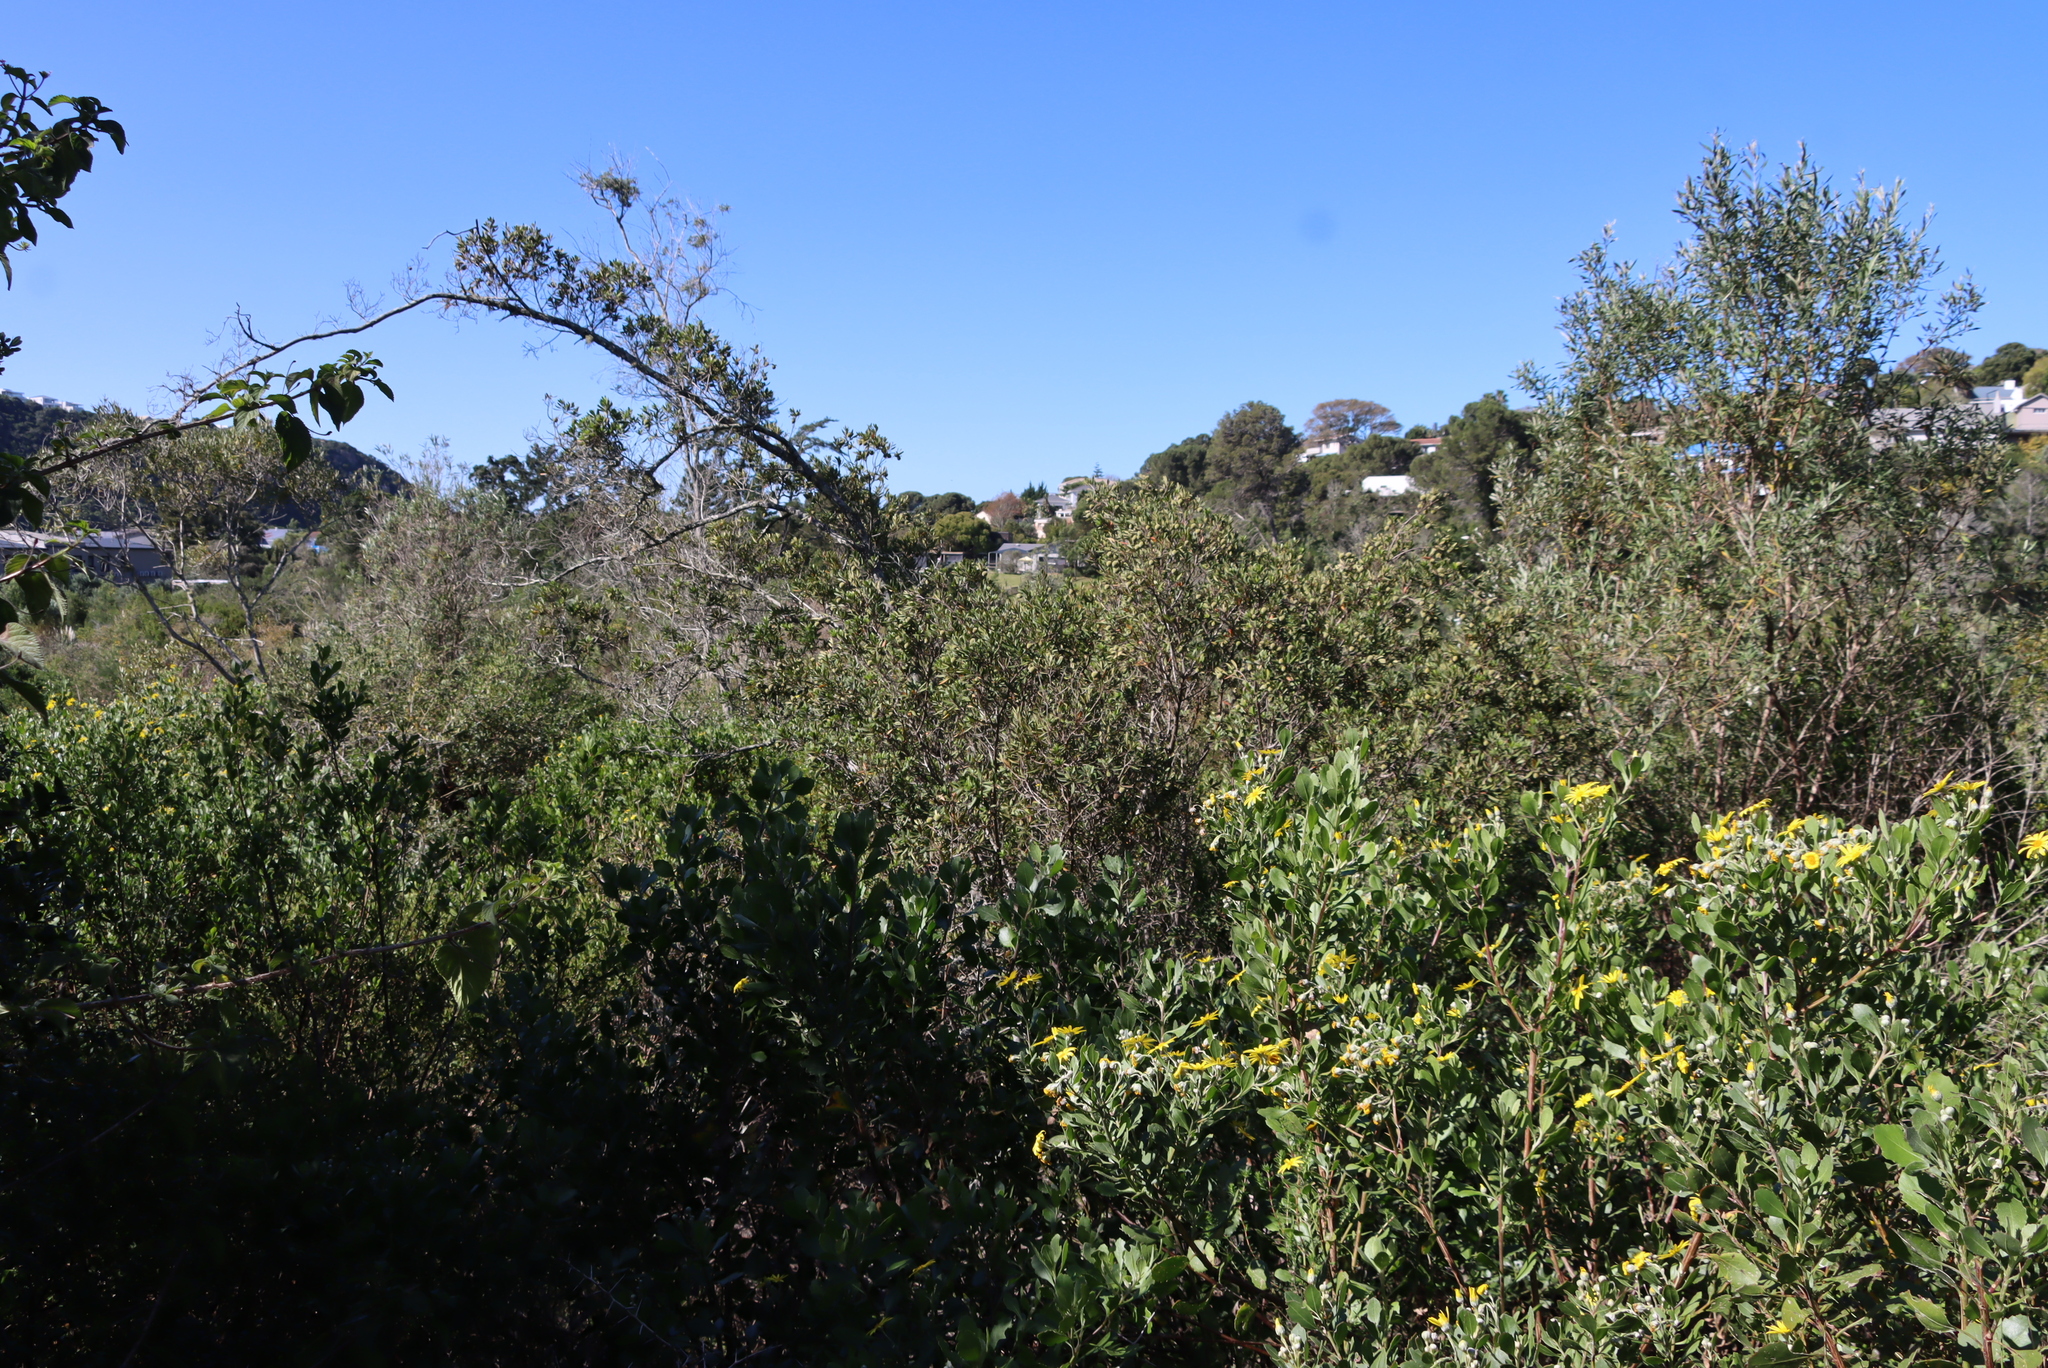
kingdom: Plantae
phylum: Tracheophyta
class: Magnoliopsida
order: Ericales
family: Ebenaceae
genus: Diospyros
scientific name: Diospyros dichrophylla
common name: Common star-apple
